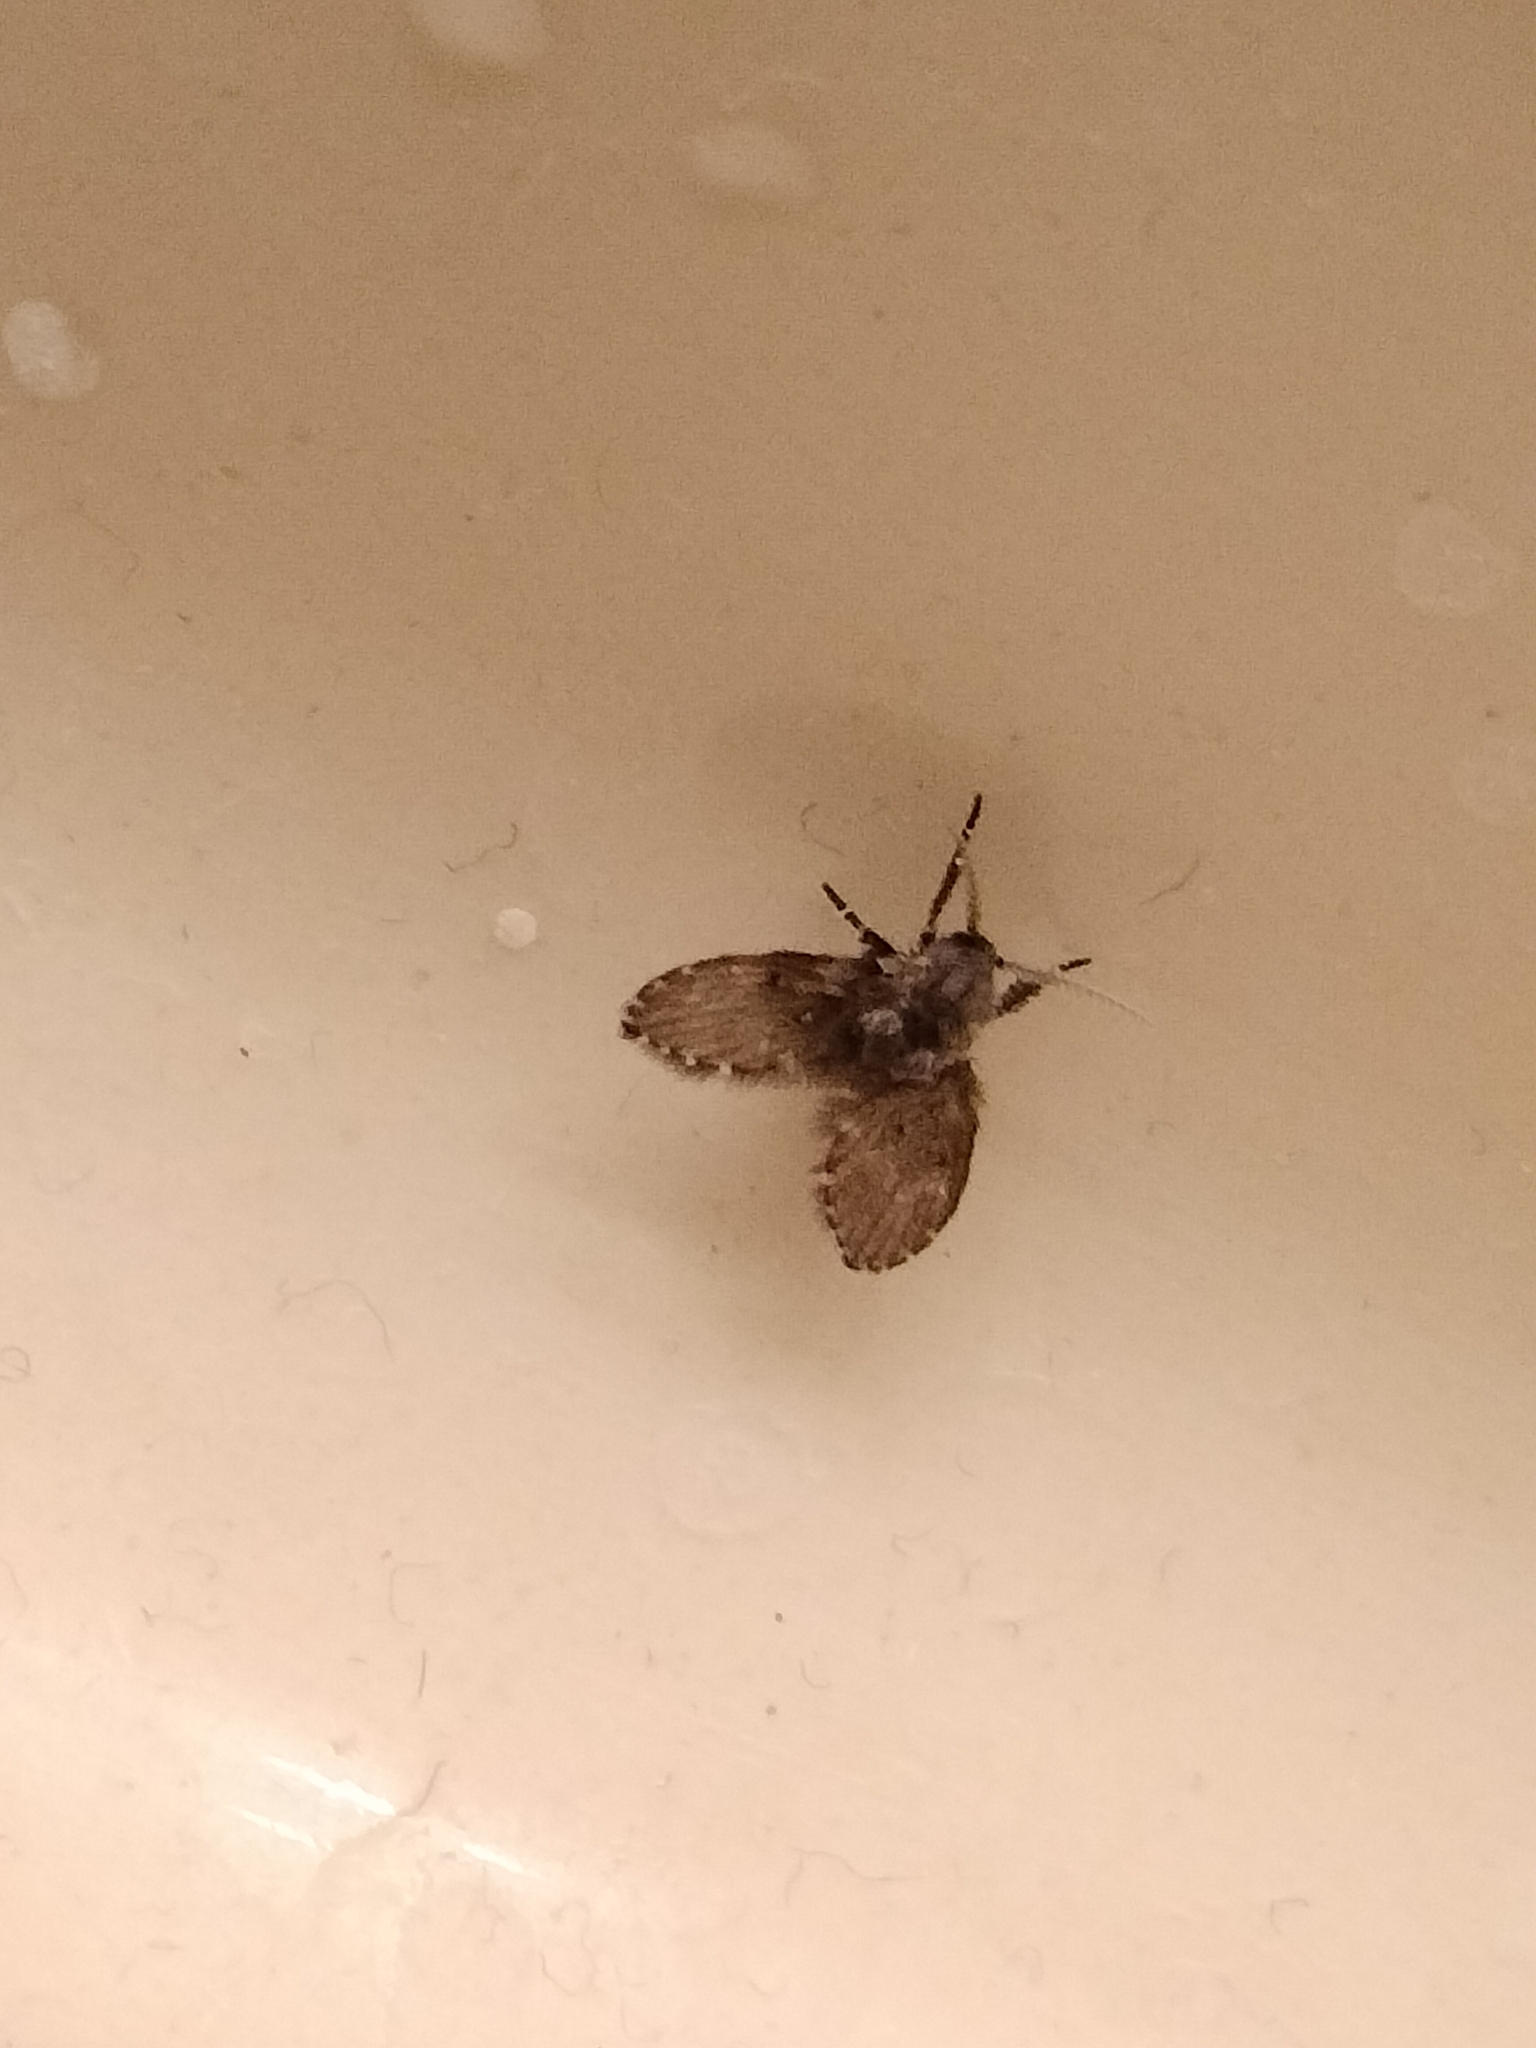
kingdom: Animalia
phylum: Arthropoda
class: Insecta
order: Diptera
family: Psychodidae
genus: Clogmia
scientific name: Clogmia albipunctatus
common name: White-spotted moth fly
